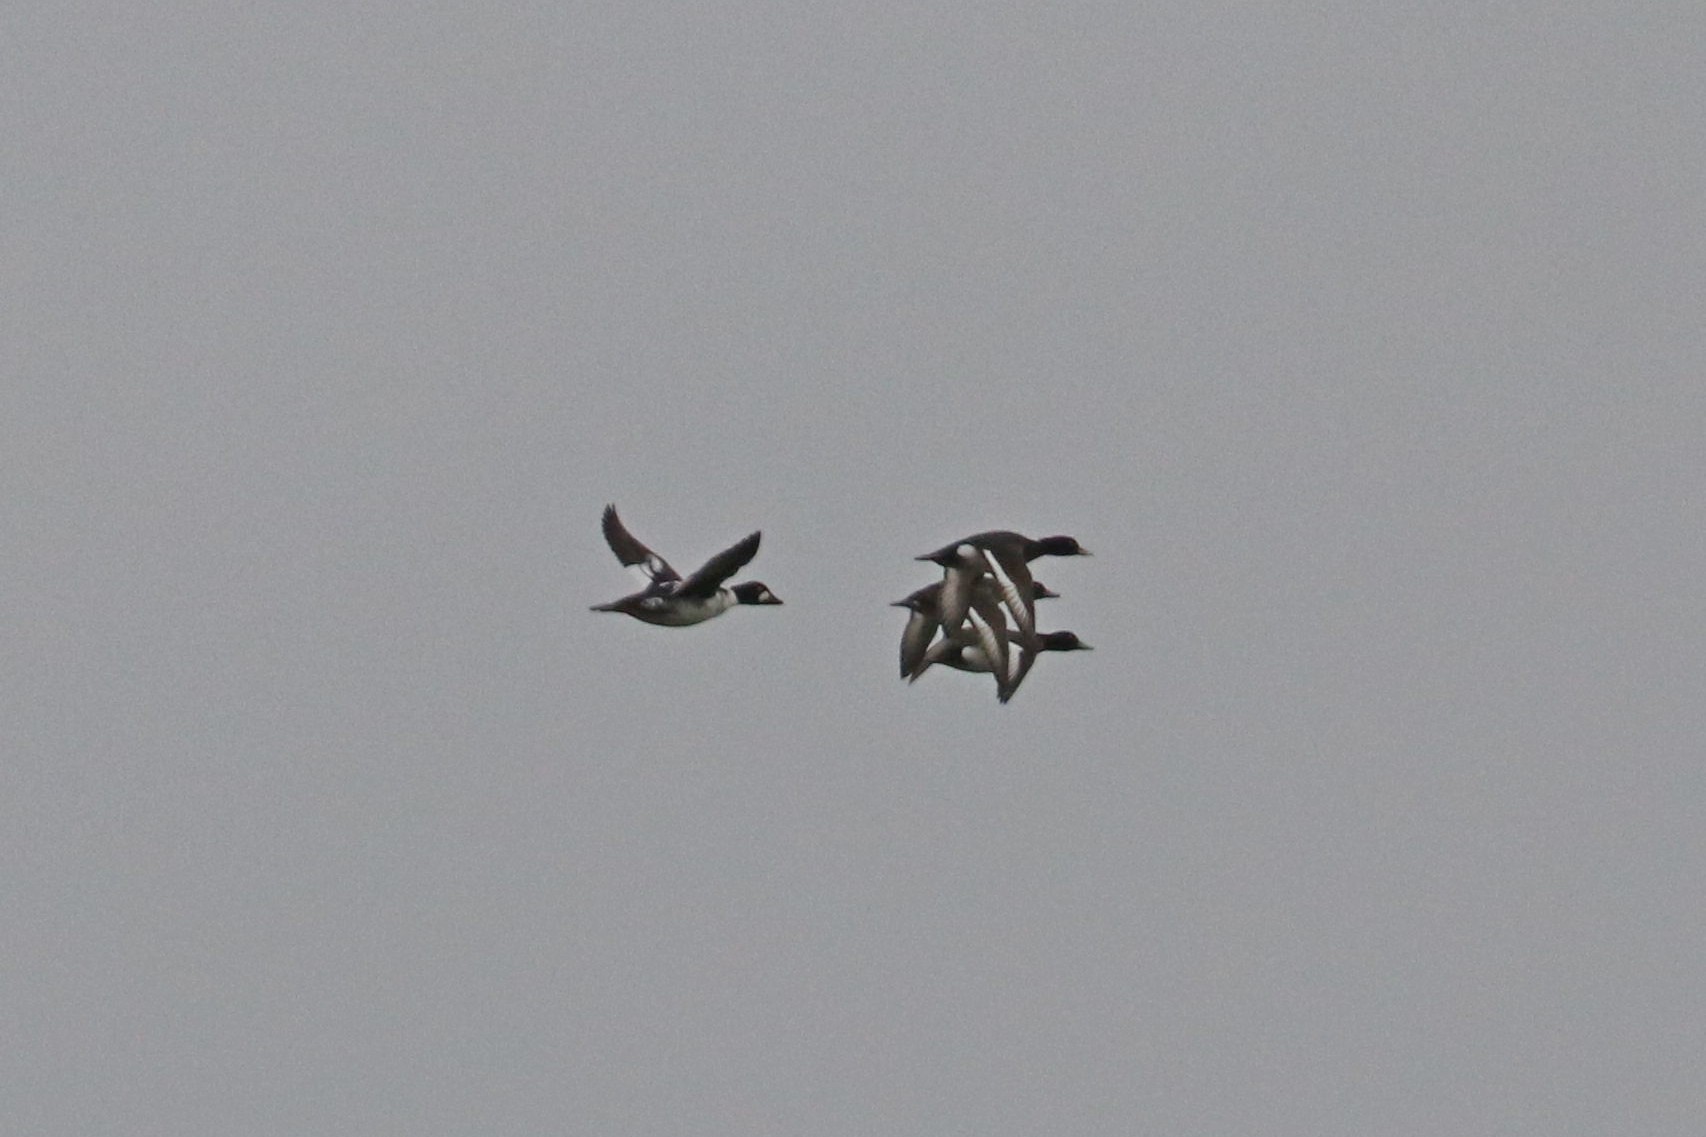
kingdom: Animalia
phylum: Chordata
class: Aves
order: Anseriformes
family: Anatidae
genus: Bucephala
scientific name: Bucephala clangula
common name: Common goldeneye
